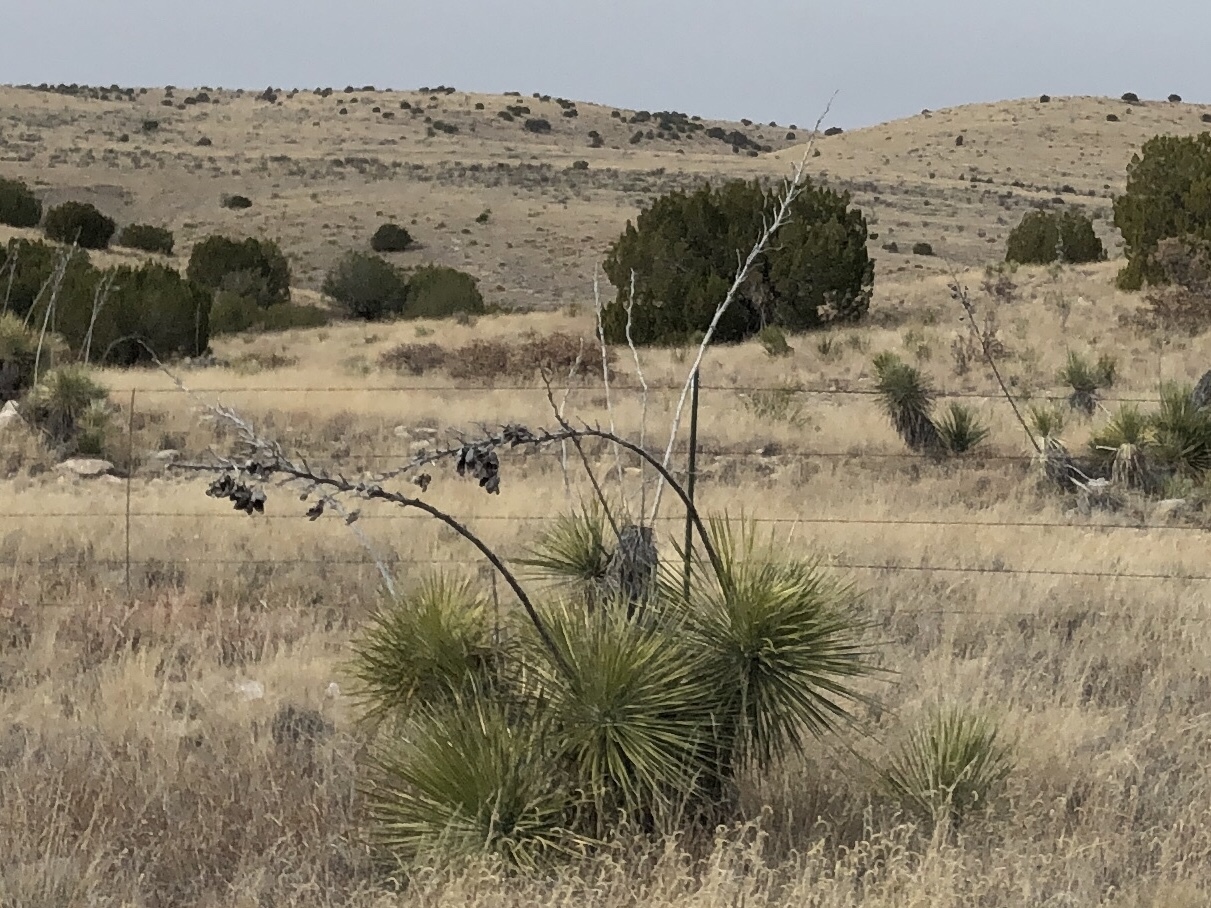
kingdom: Plantae
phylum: Tracheophyta
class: Liliopsida
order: Asparagales
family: Asparagaceae
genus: Yucca
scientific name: Yucca elata
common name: Palmella
